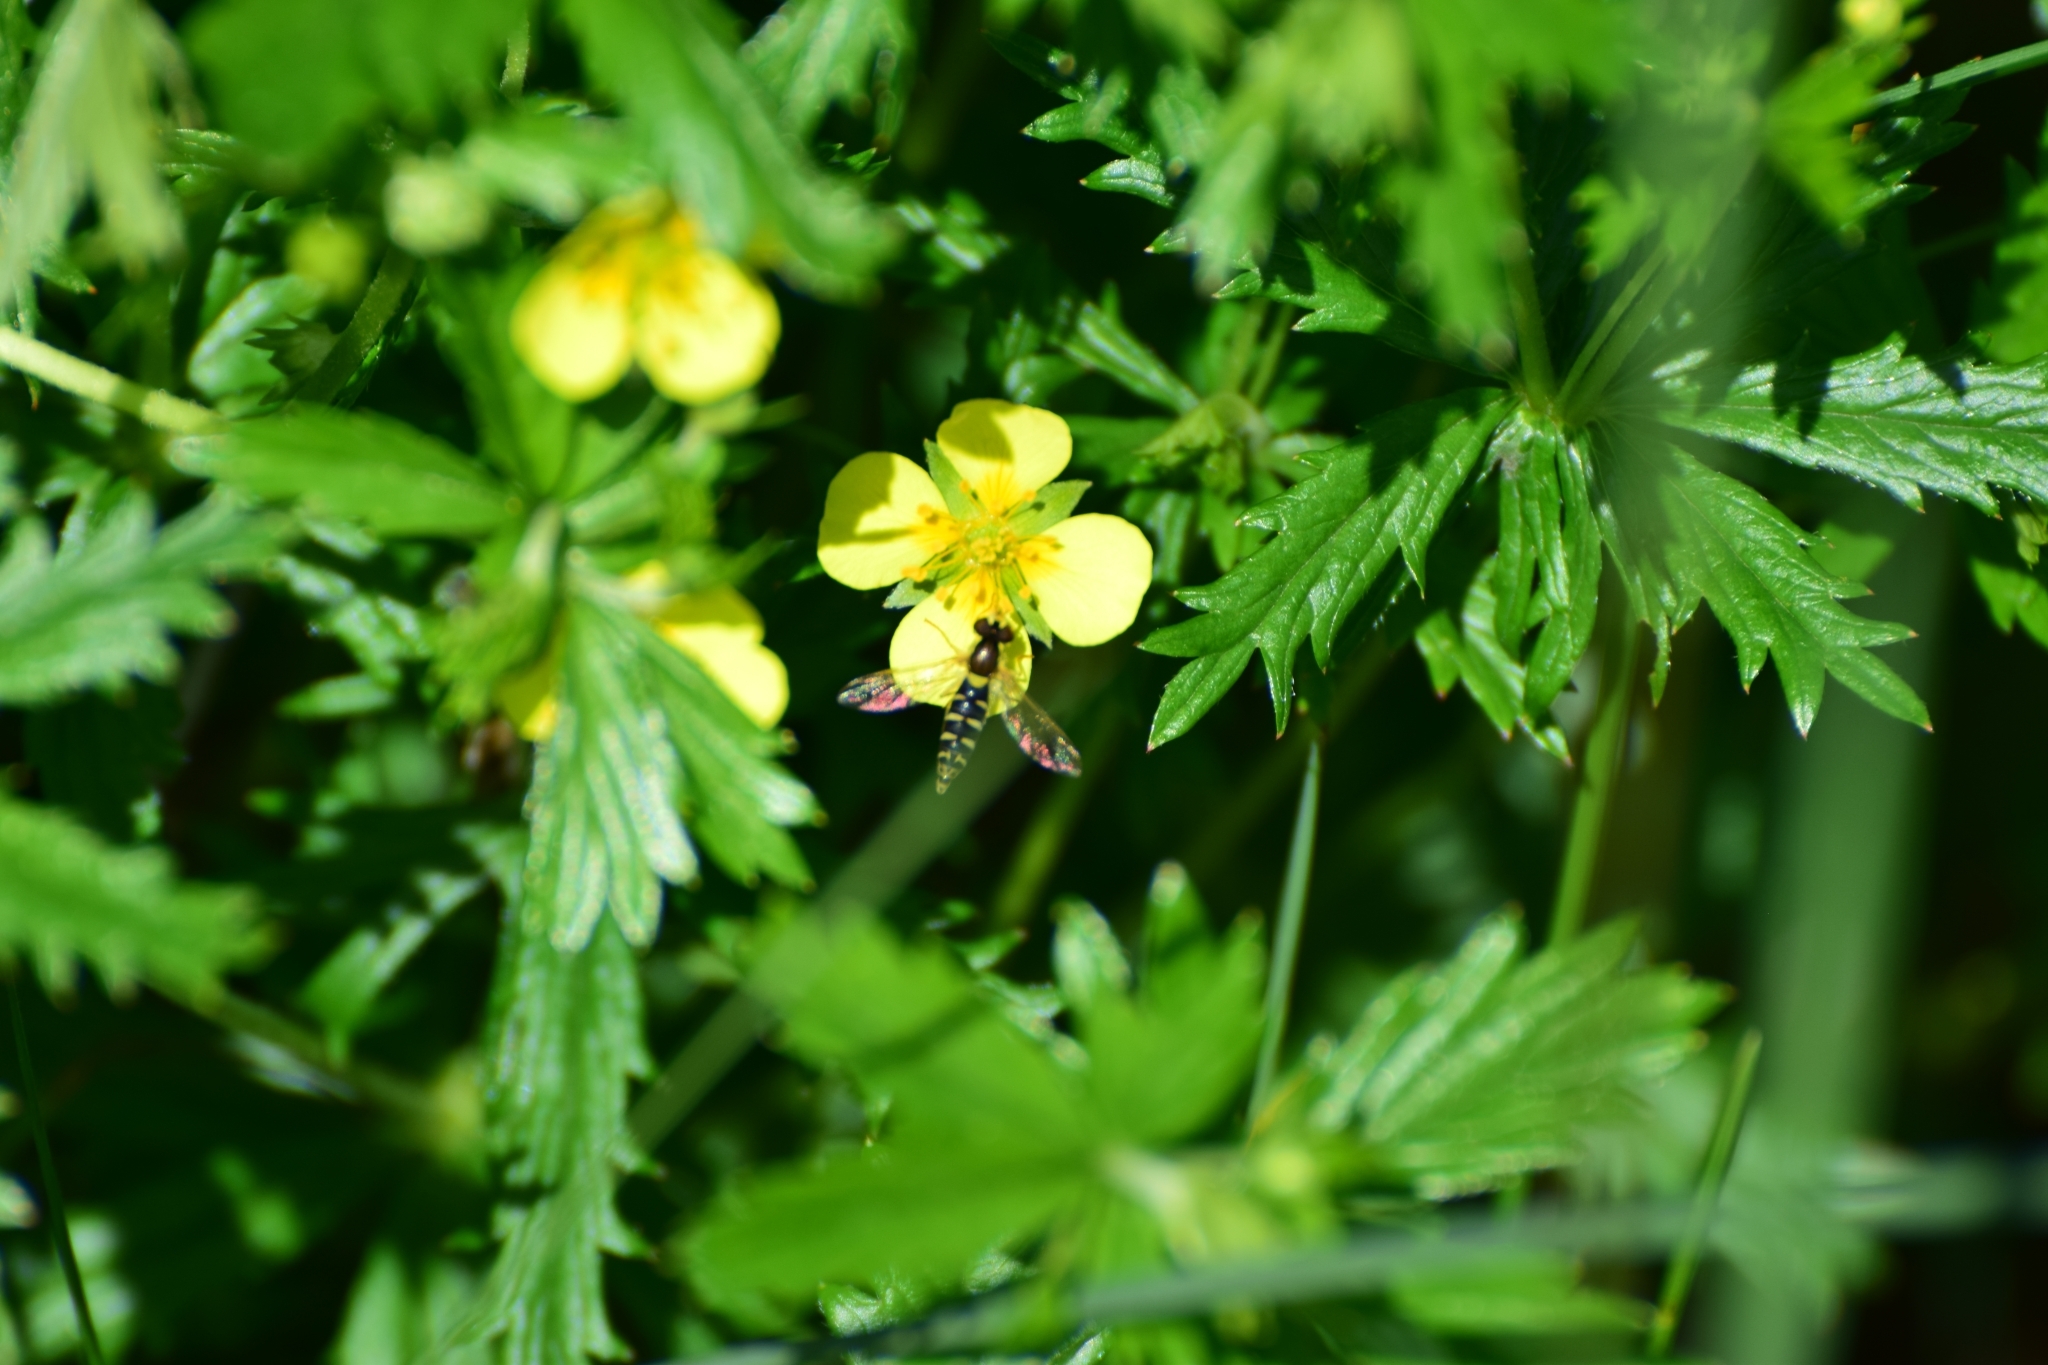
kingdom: Plantae
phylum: Tracheophyta
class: Magnoliopsida
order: Rosales
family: Rosaceae
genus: Potentilla
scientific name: Potentilla erecta
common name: Tormentil
